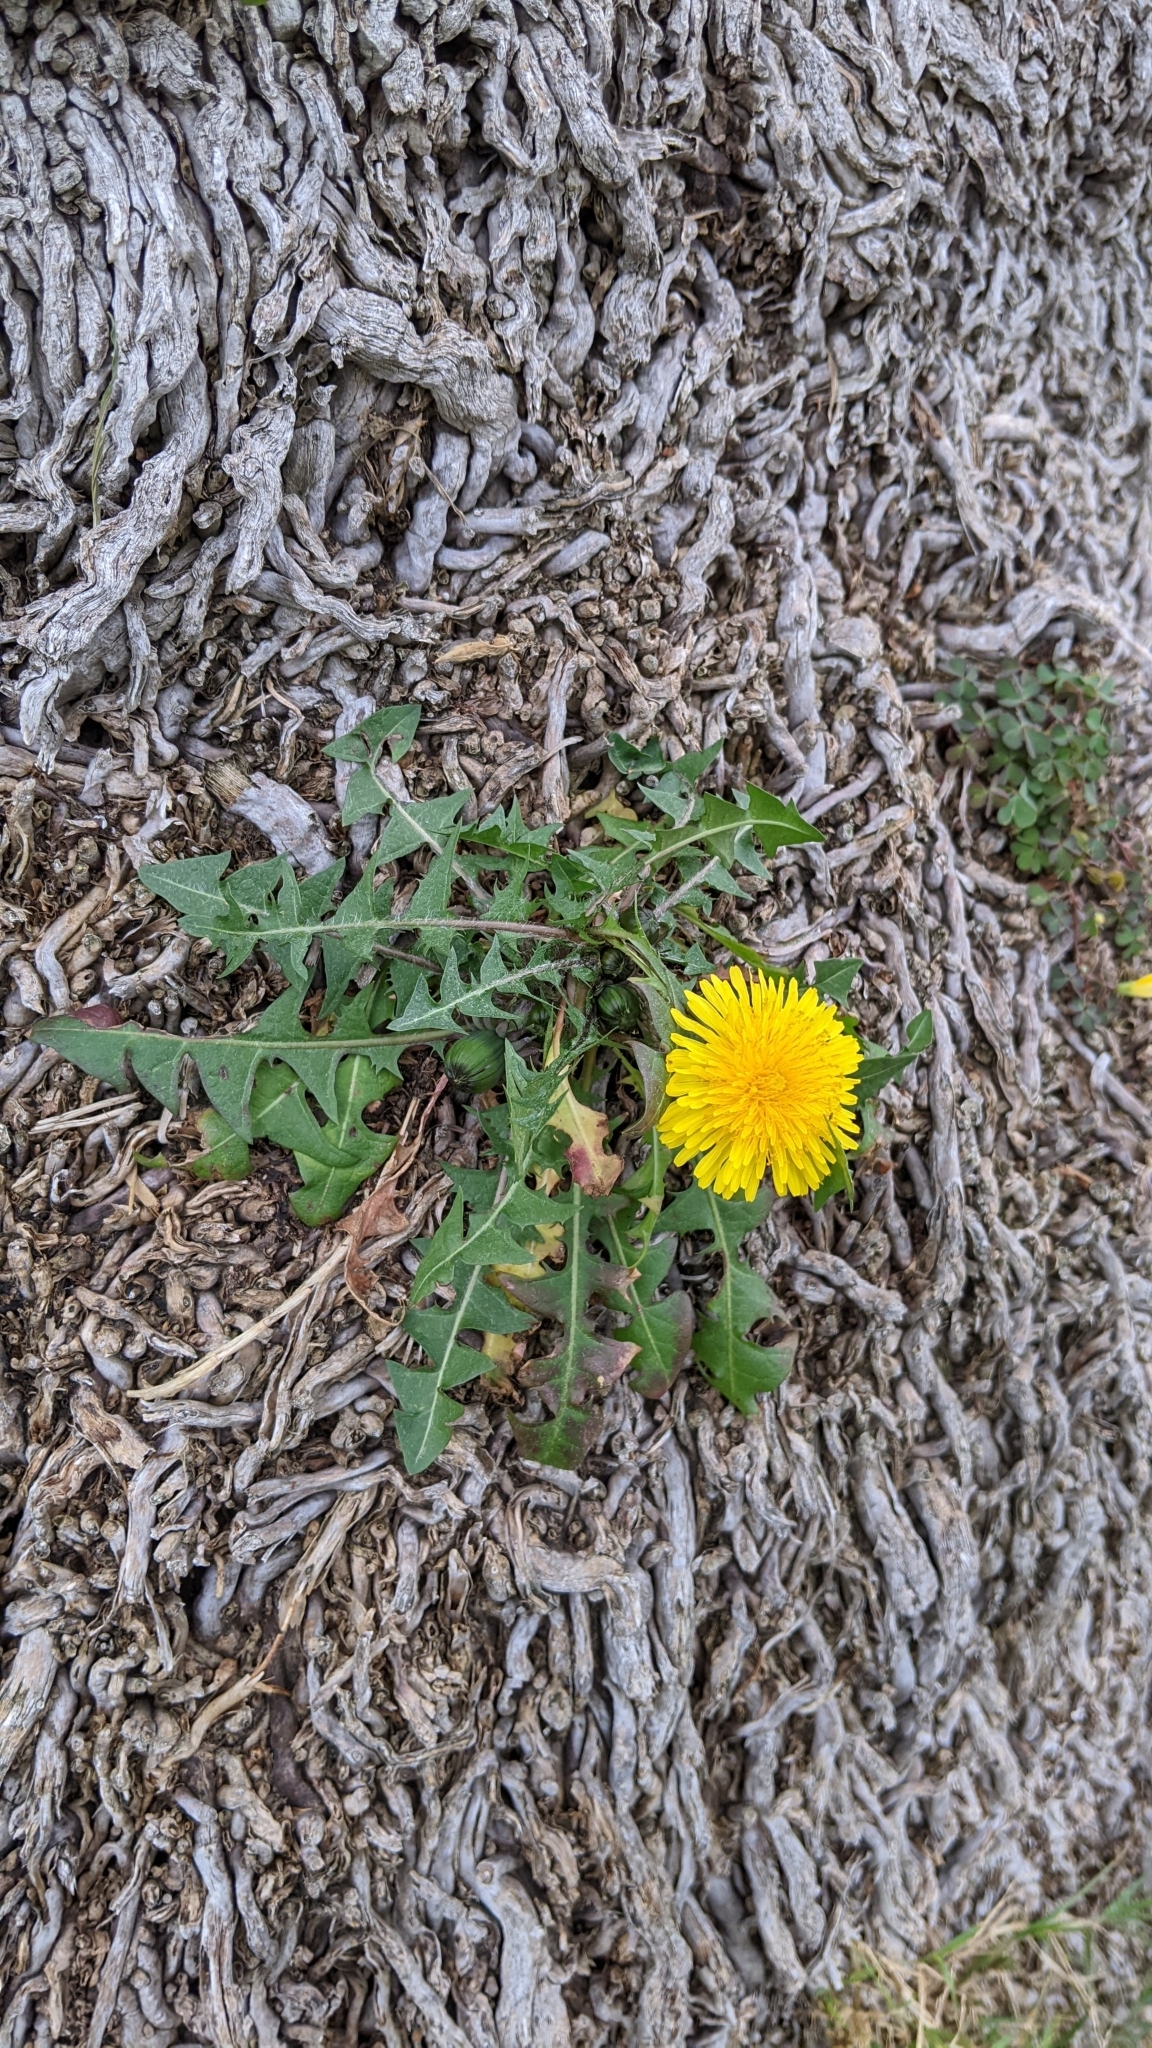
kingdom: Plantae
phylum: Tracheophyta
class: Magnoliopsida
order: Asterales
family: Asteraceae
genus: Taraxacum
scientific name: Taraxacum officinale
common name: Common dandelion
